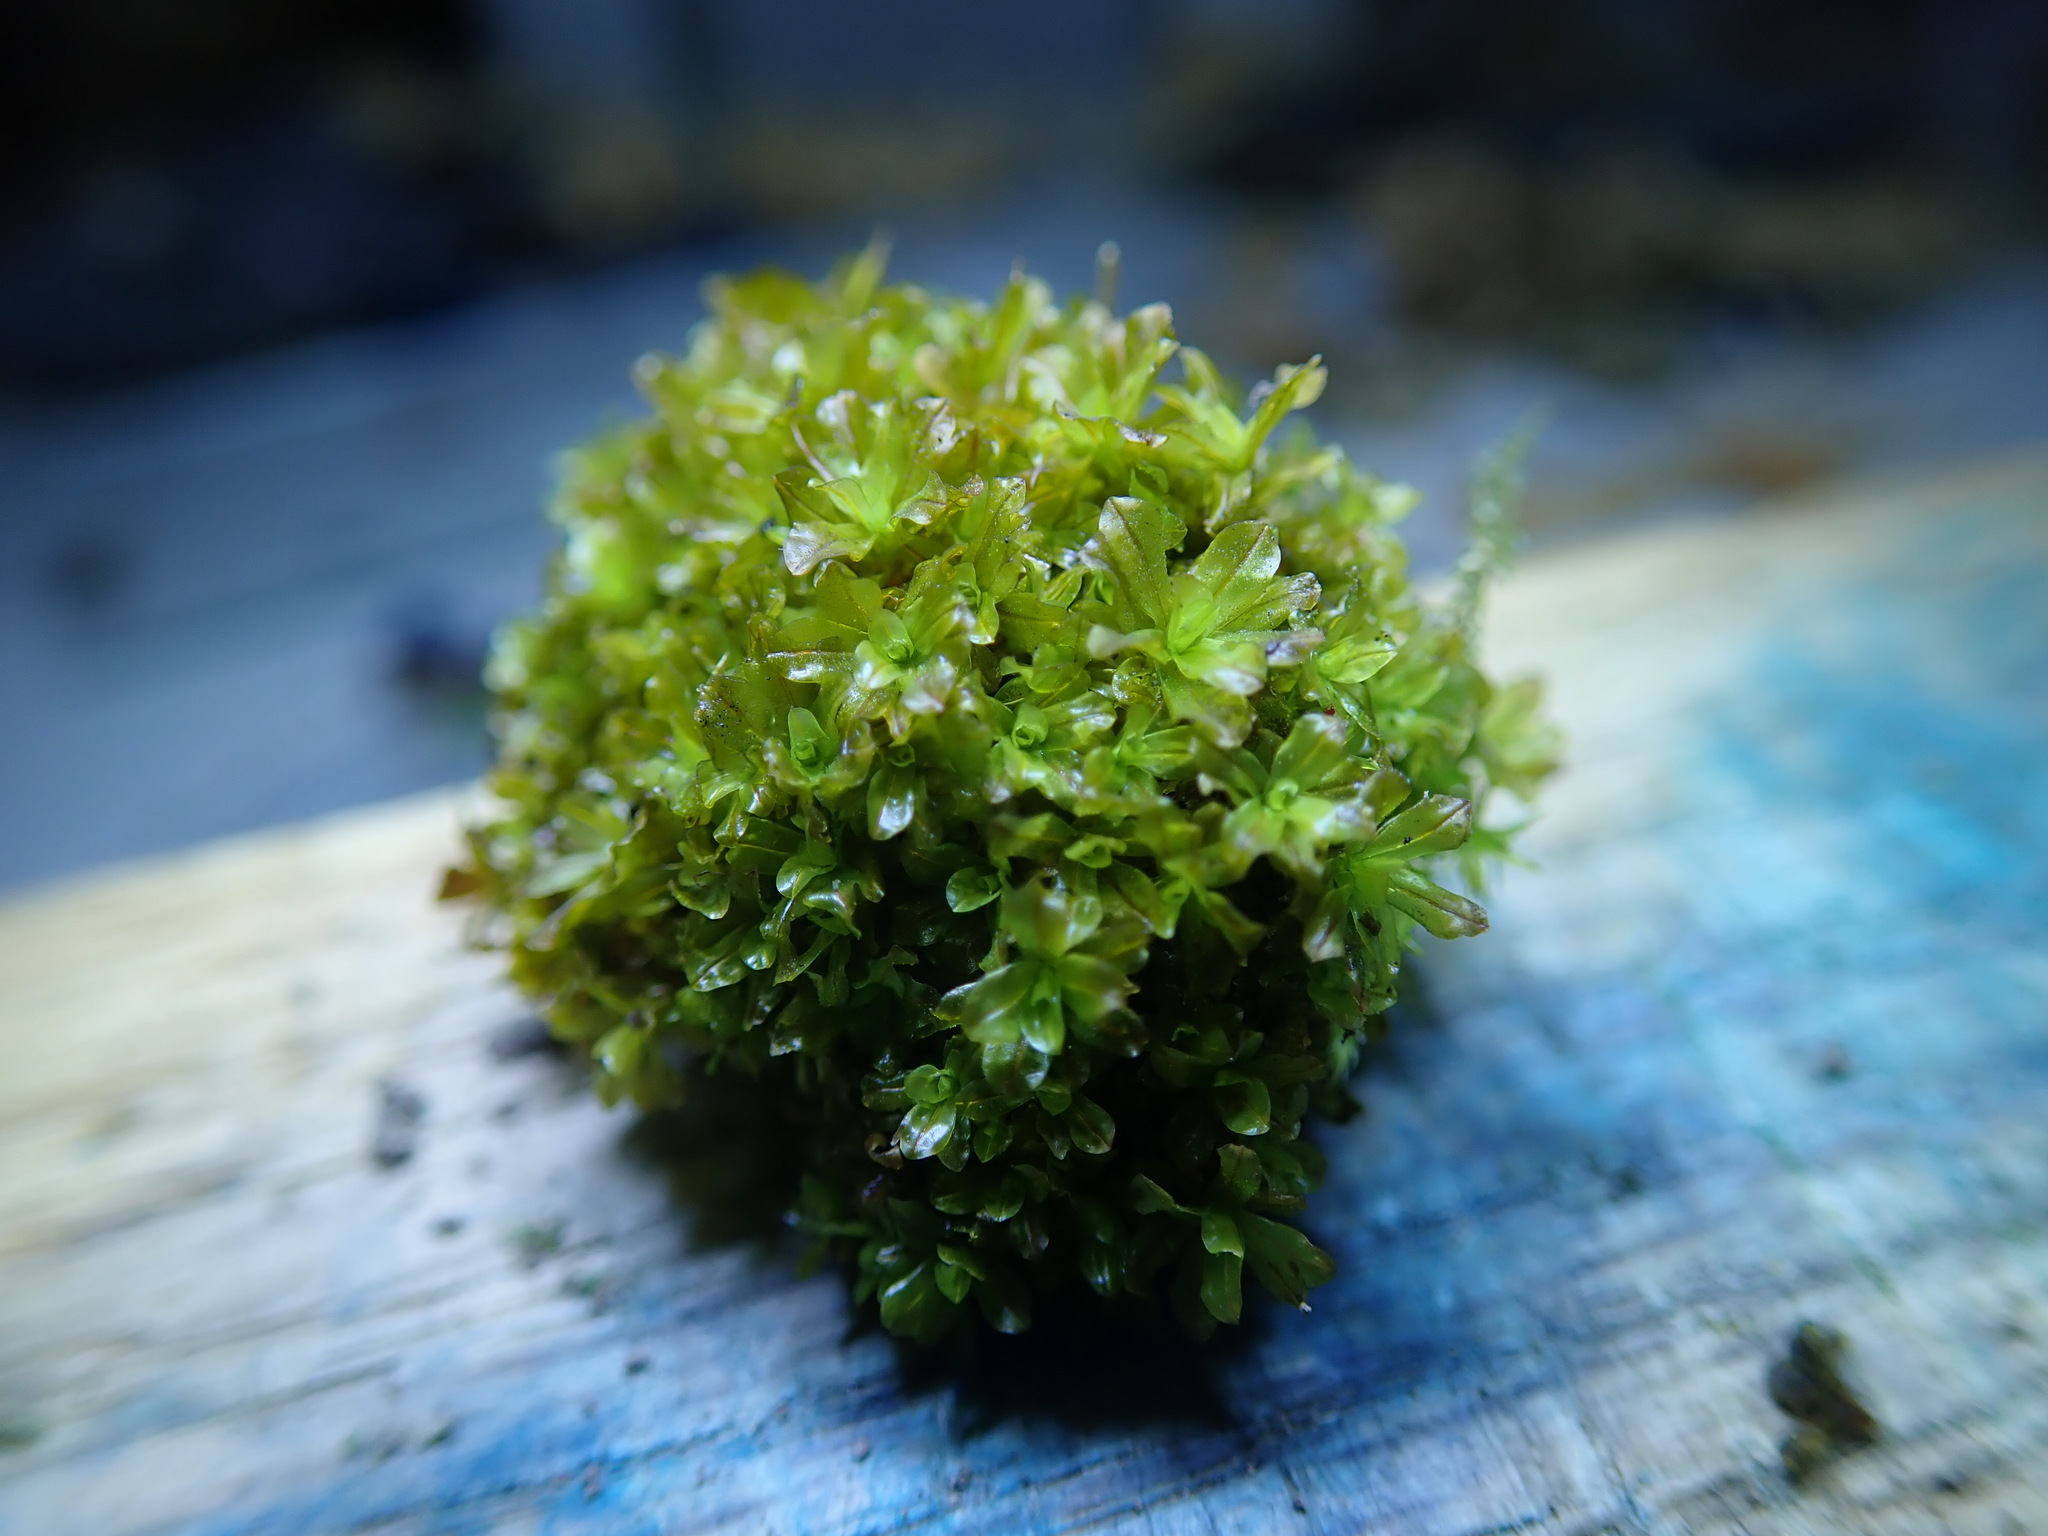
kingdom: Plantae
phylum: Bryophyta
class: Bryopsida
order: Pottiales
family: Pottiaceae
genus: Syntrichia
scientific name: Syntrichia latifolia
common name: Water screw-moss
